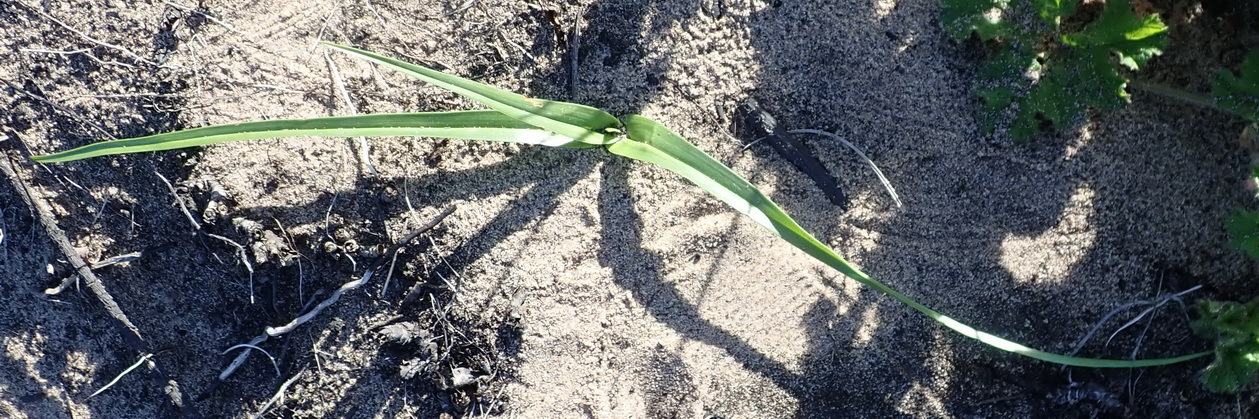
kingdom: Plantae
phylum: Tracheophyta
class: Liliopsida
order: Liliales
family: Colchicaceae
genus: Colchicum
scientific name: Colchicum longipes
